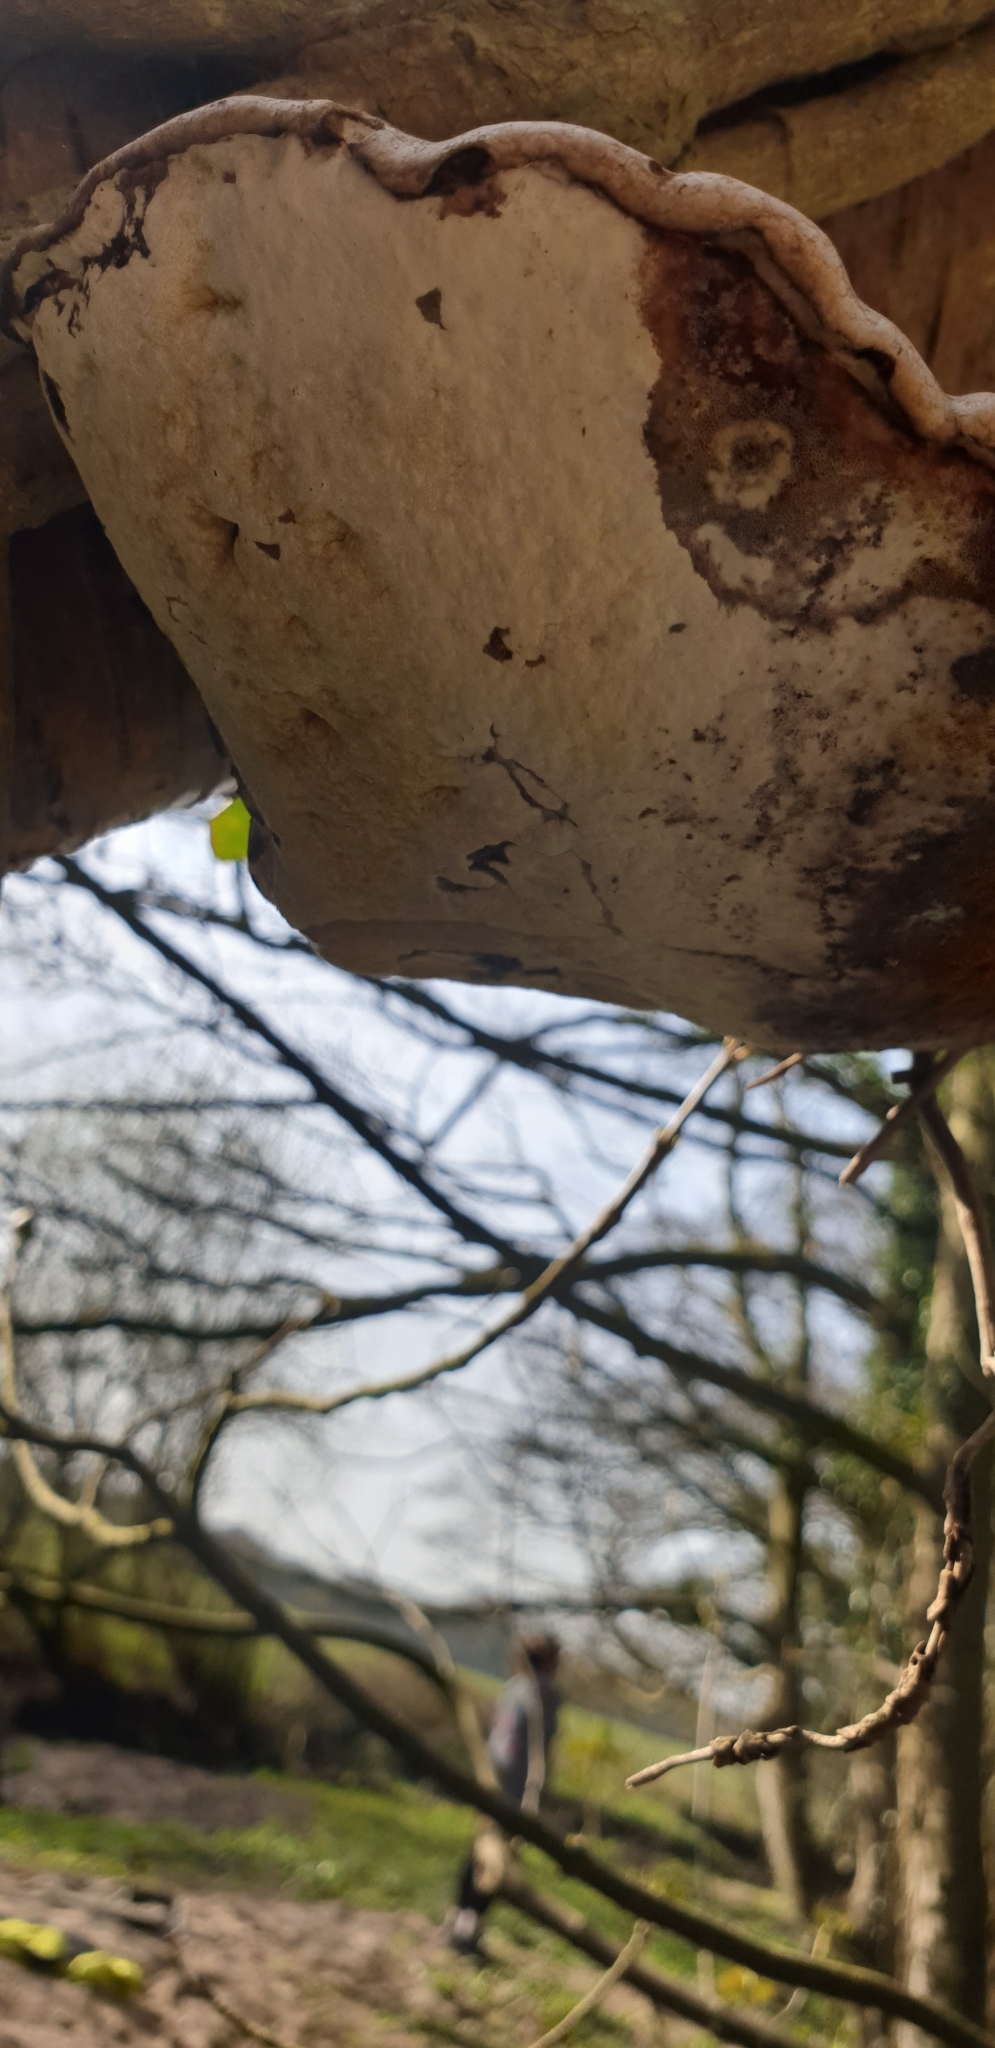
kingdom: Fungi
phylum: Basidiomycota
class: Agaricomycetes
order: Polyporales
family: Fomitopsidaceae
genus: Fomitopsis
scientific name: Fomitopsis betulina
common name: Birch polypore
